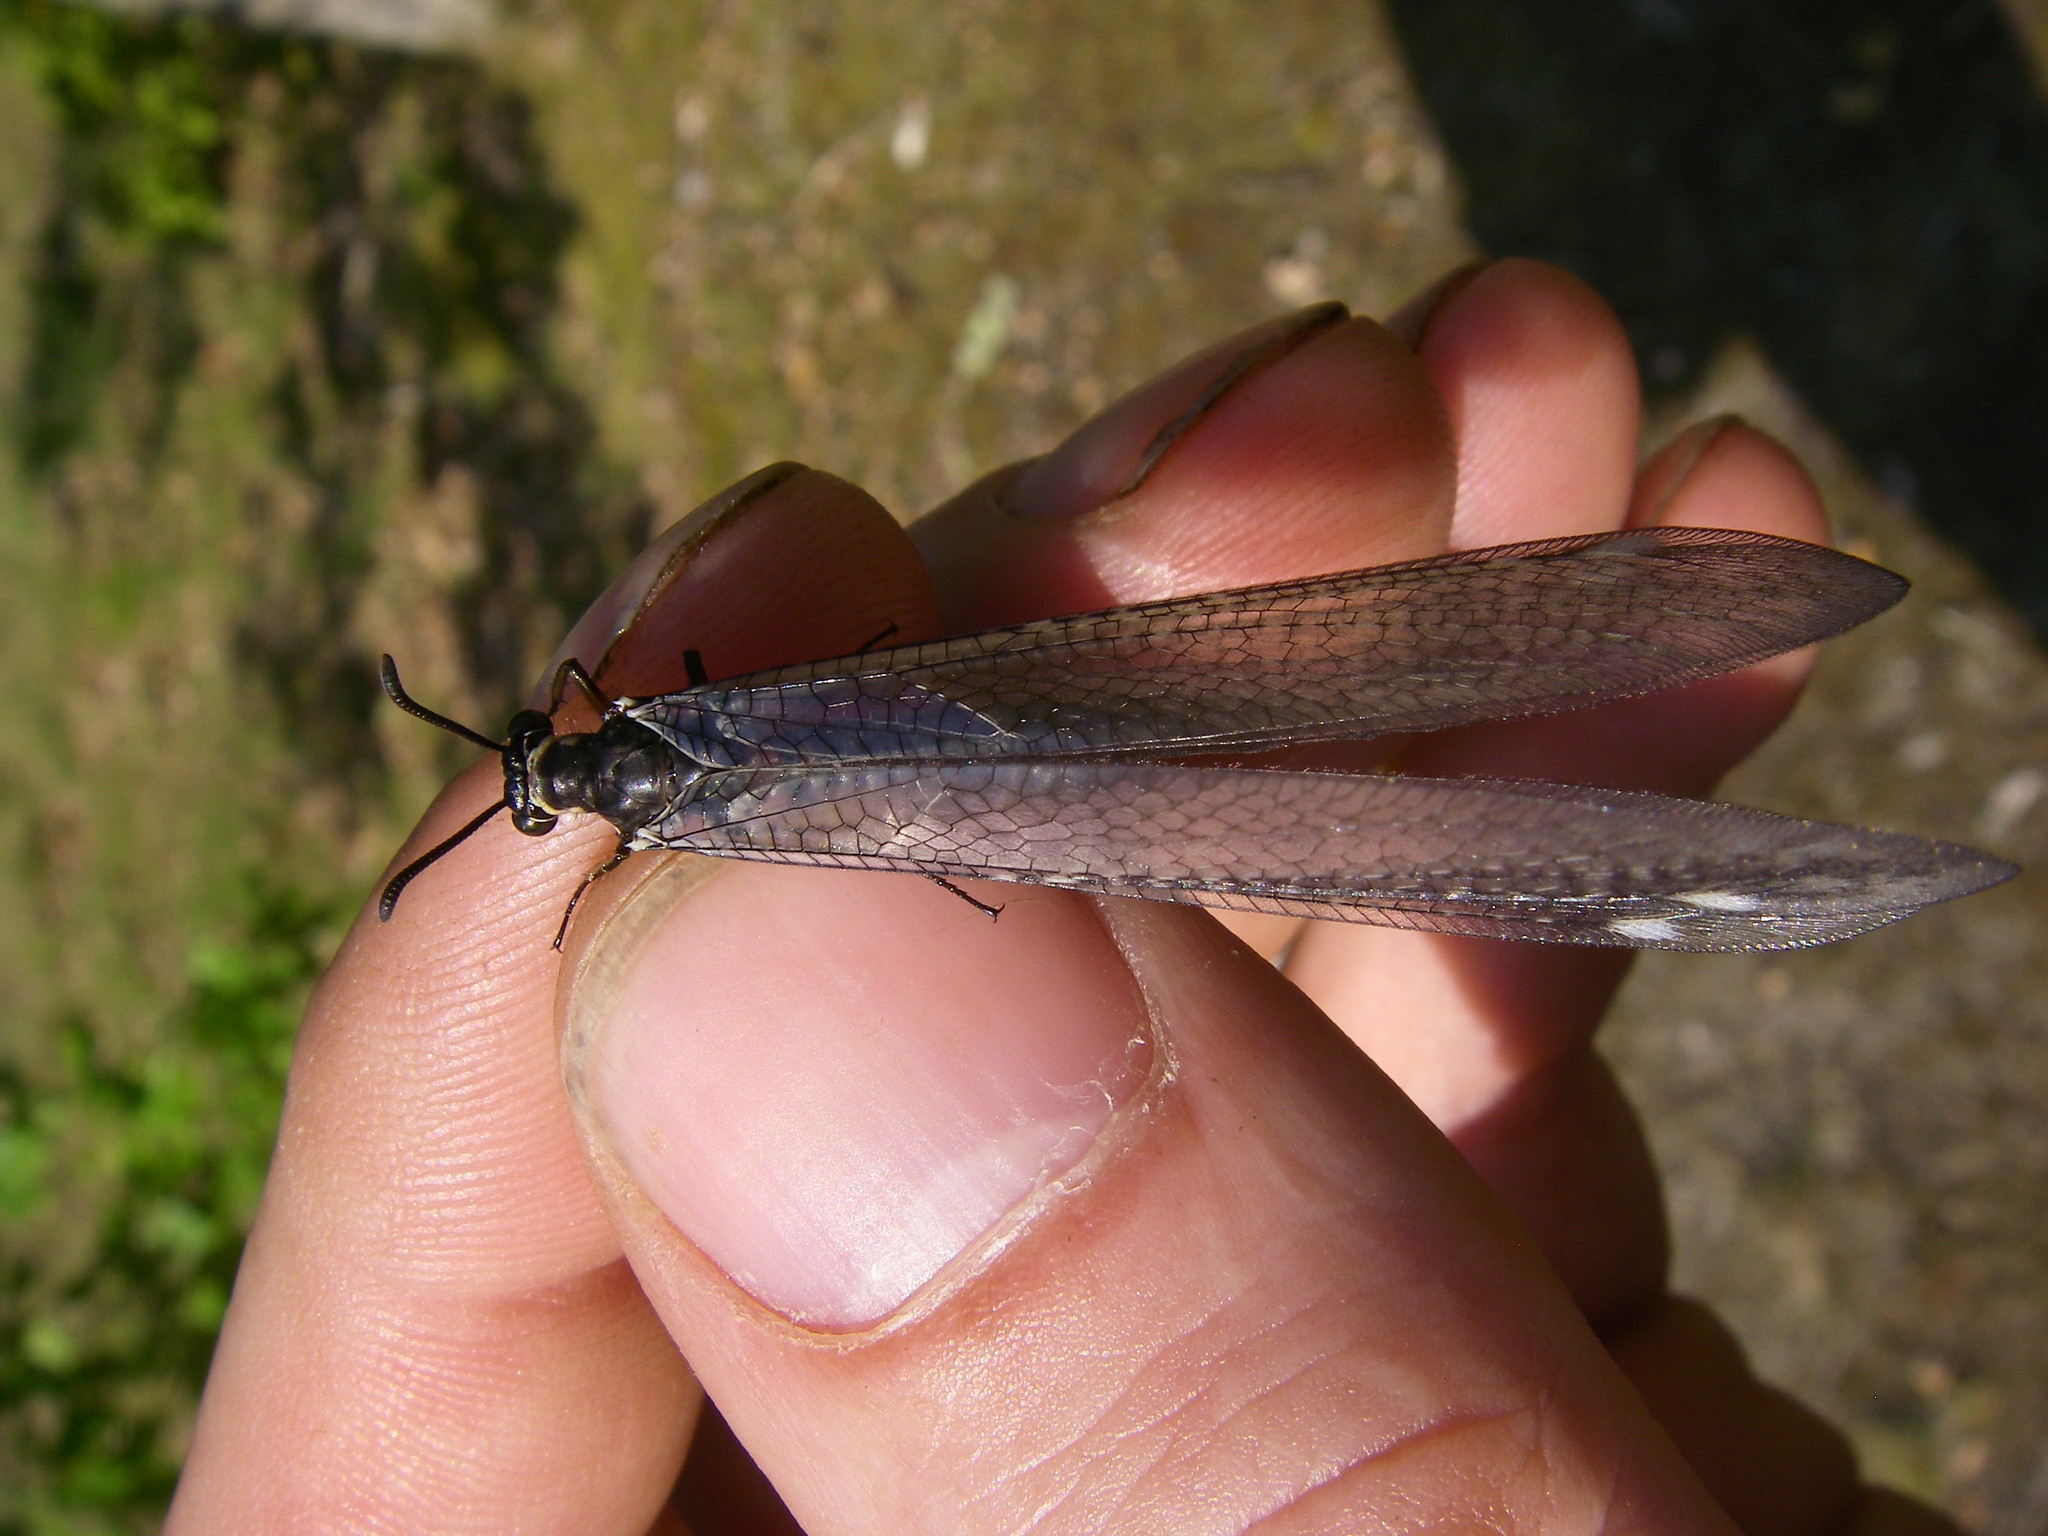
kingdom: Animalia
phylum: Arthropoda
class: Insecta
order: Neuroptera
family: Myrmeleontidae
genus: Myrmeleon
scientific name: Myrmeleon formicarius
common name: Ant-lion
